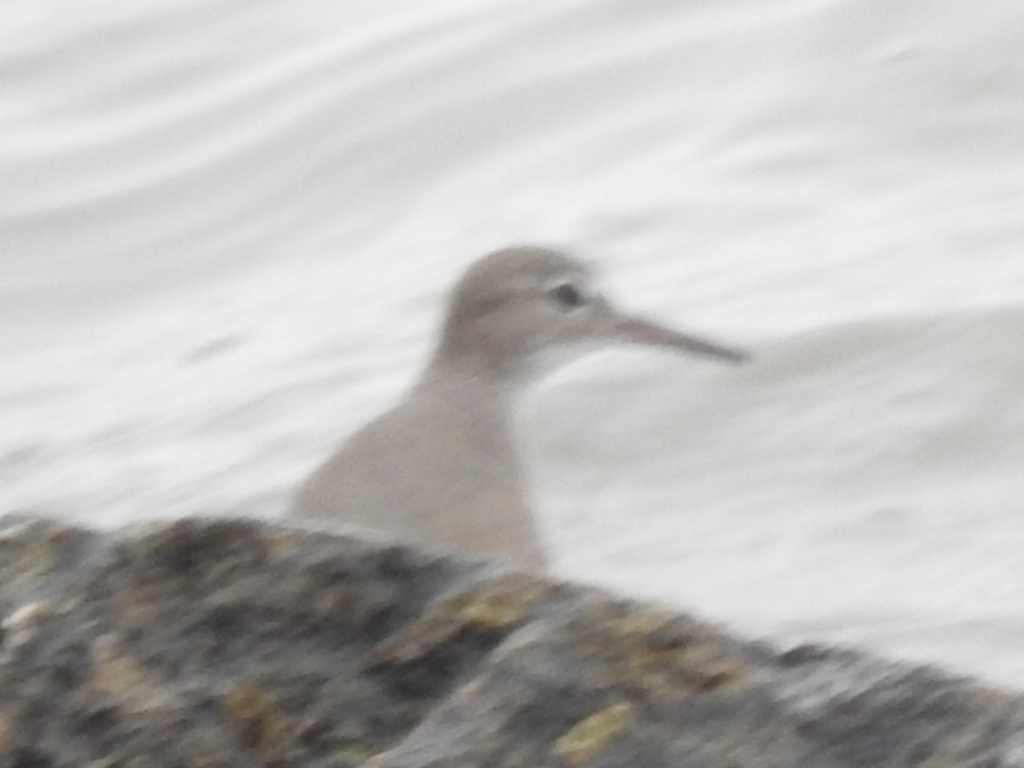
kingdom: Animalia
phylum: Chordata
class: Aves
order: Charadriiformes
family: Scolopacidae
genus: Actitis
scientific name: Actitis macularius
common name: Spotted sandpiper
